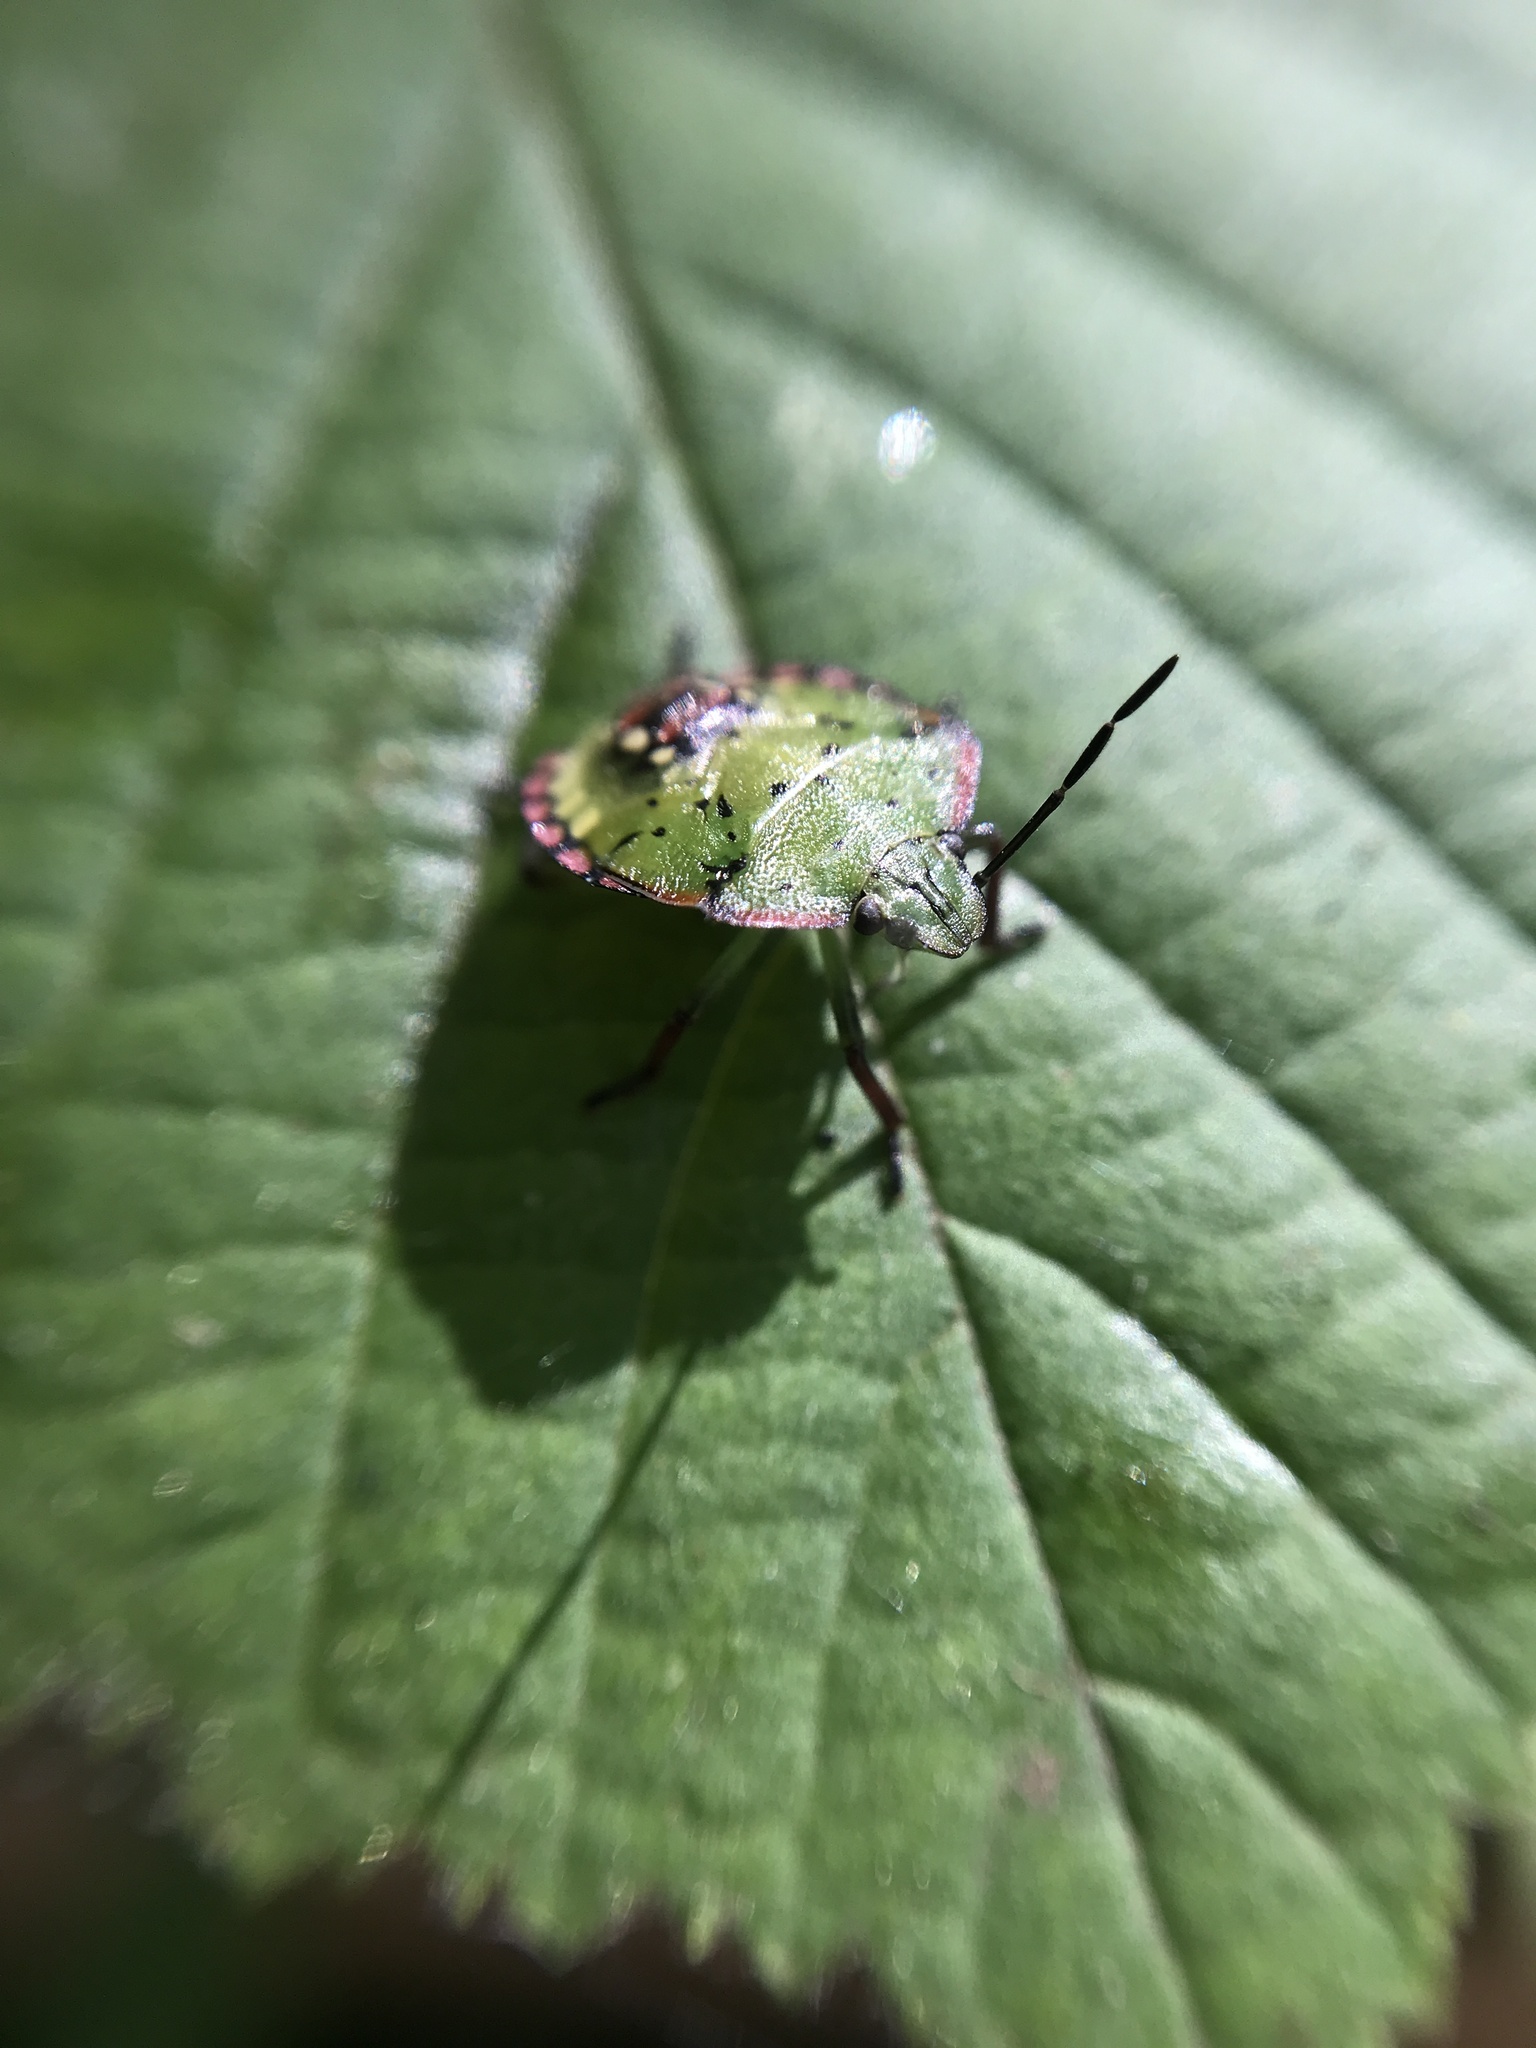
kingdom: Animalia
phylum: Arthropoda
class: Insecta
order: Hemiptera
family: Pentatomidae
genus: Nezara
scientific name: Nezara viridula
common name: Southern green stink bug
